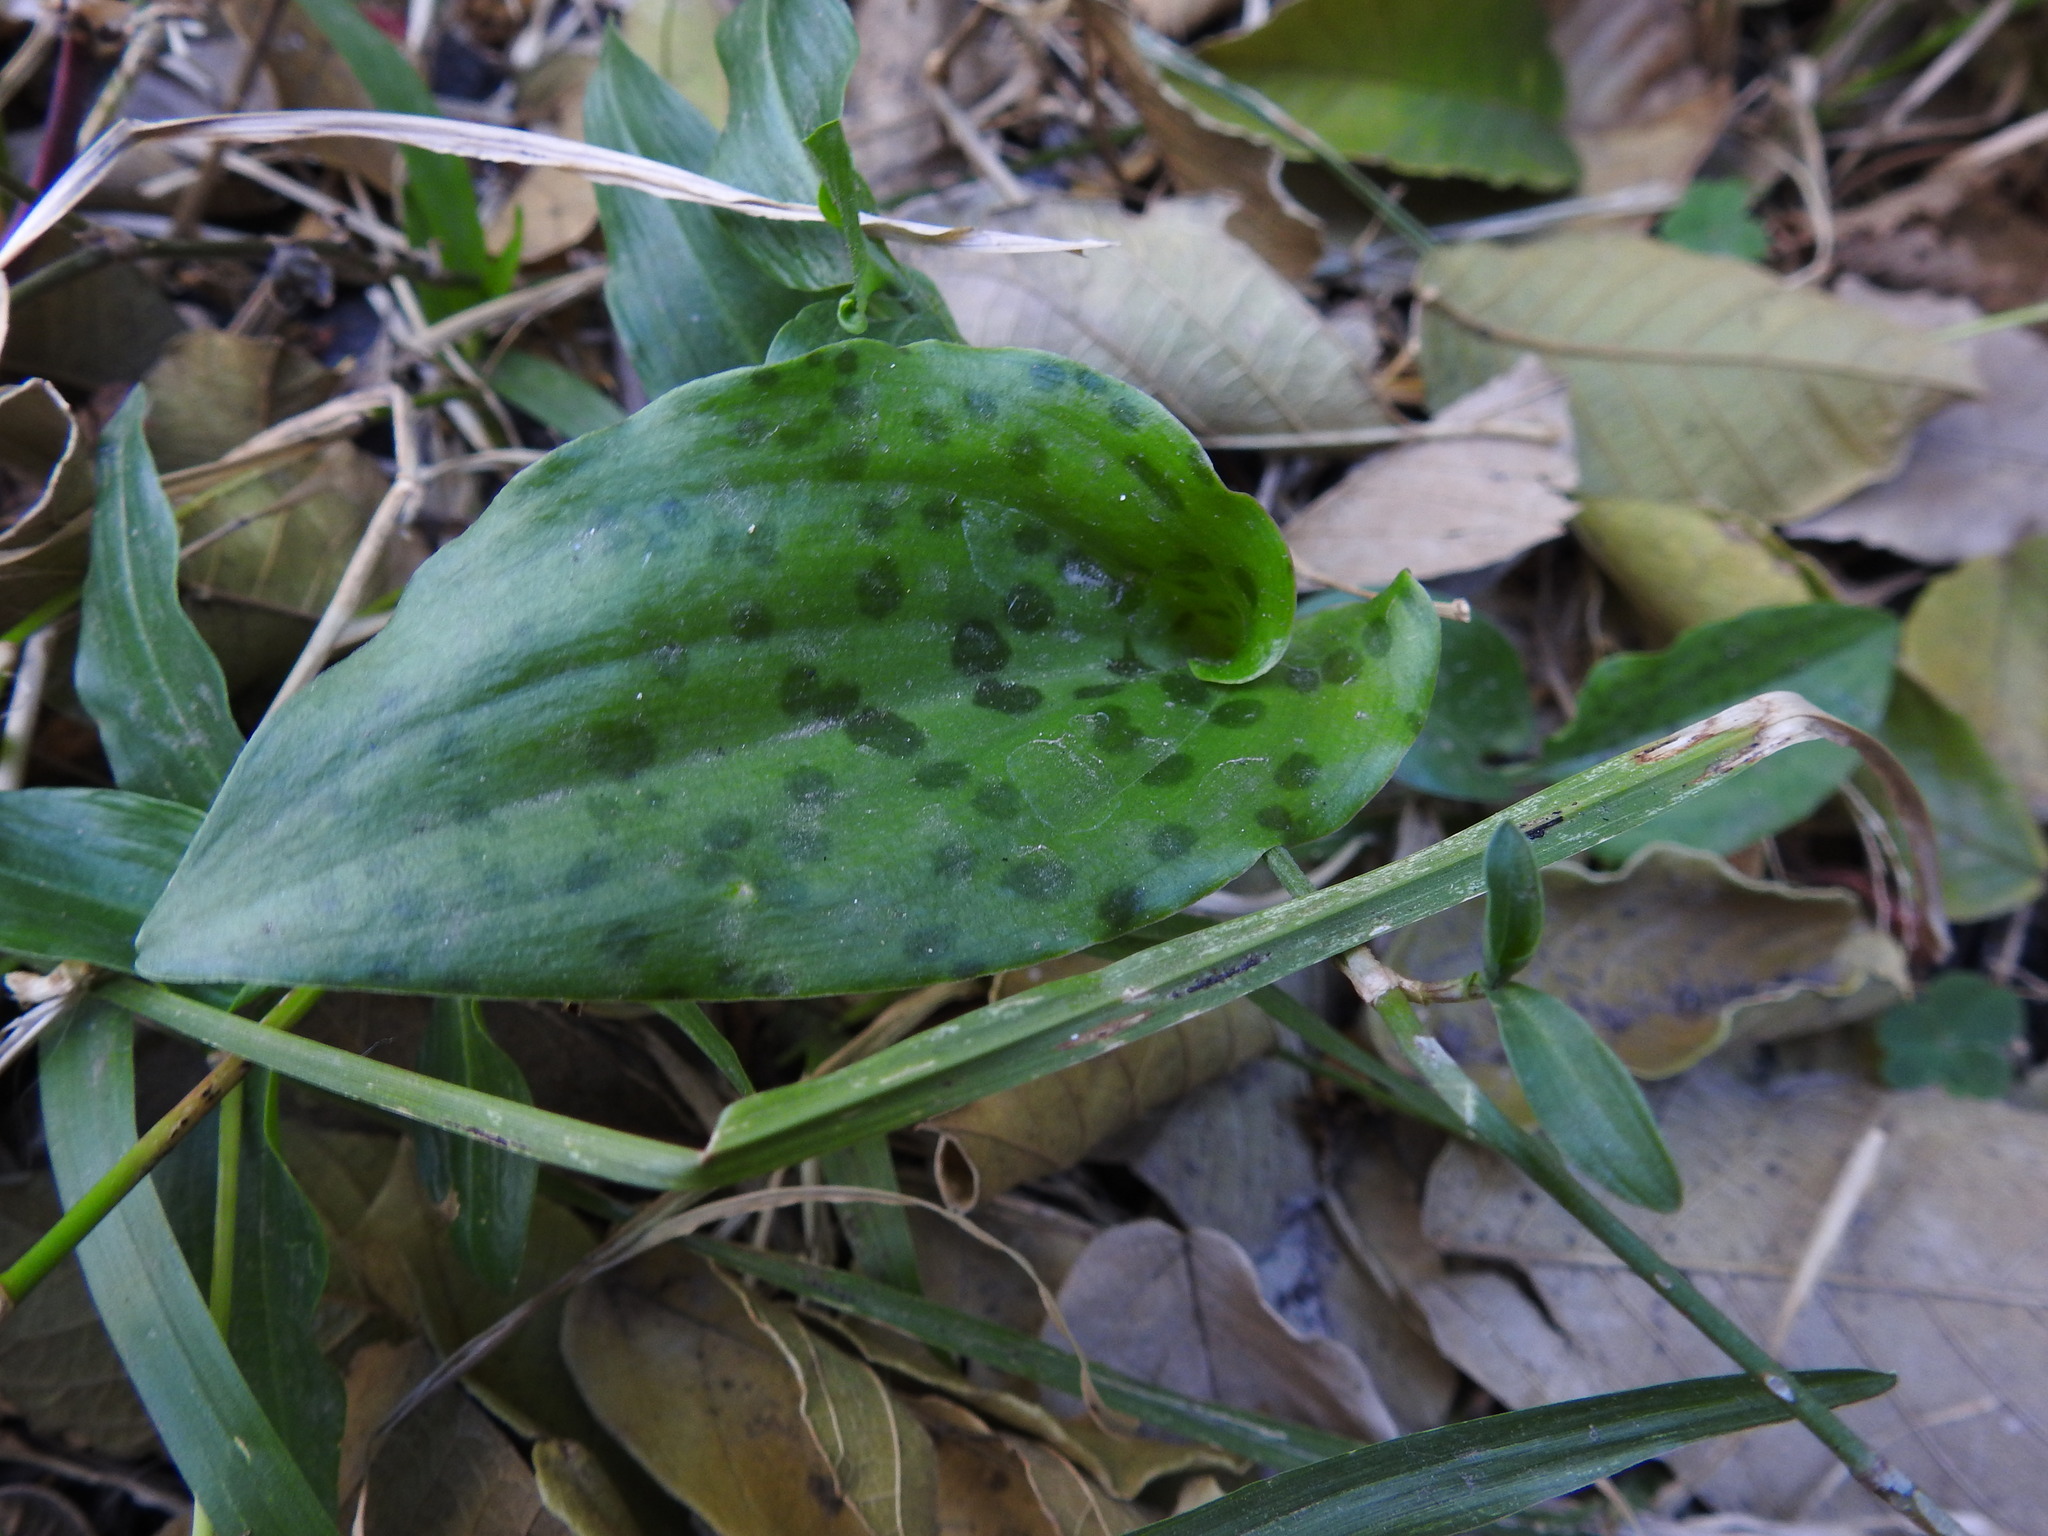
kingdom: Plantae
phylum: Tracheophyta
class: Liliopsida
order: Asparagales
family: Asparagaceae
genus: Drimiopsis
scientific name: Drimiopsis maculata
